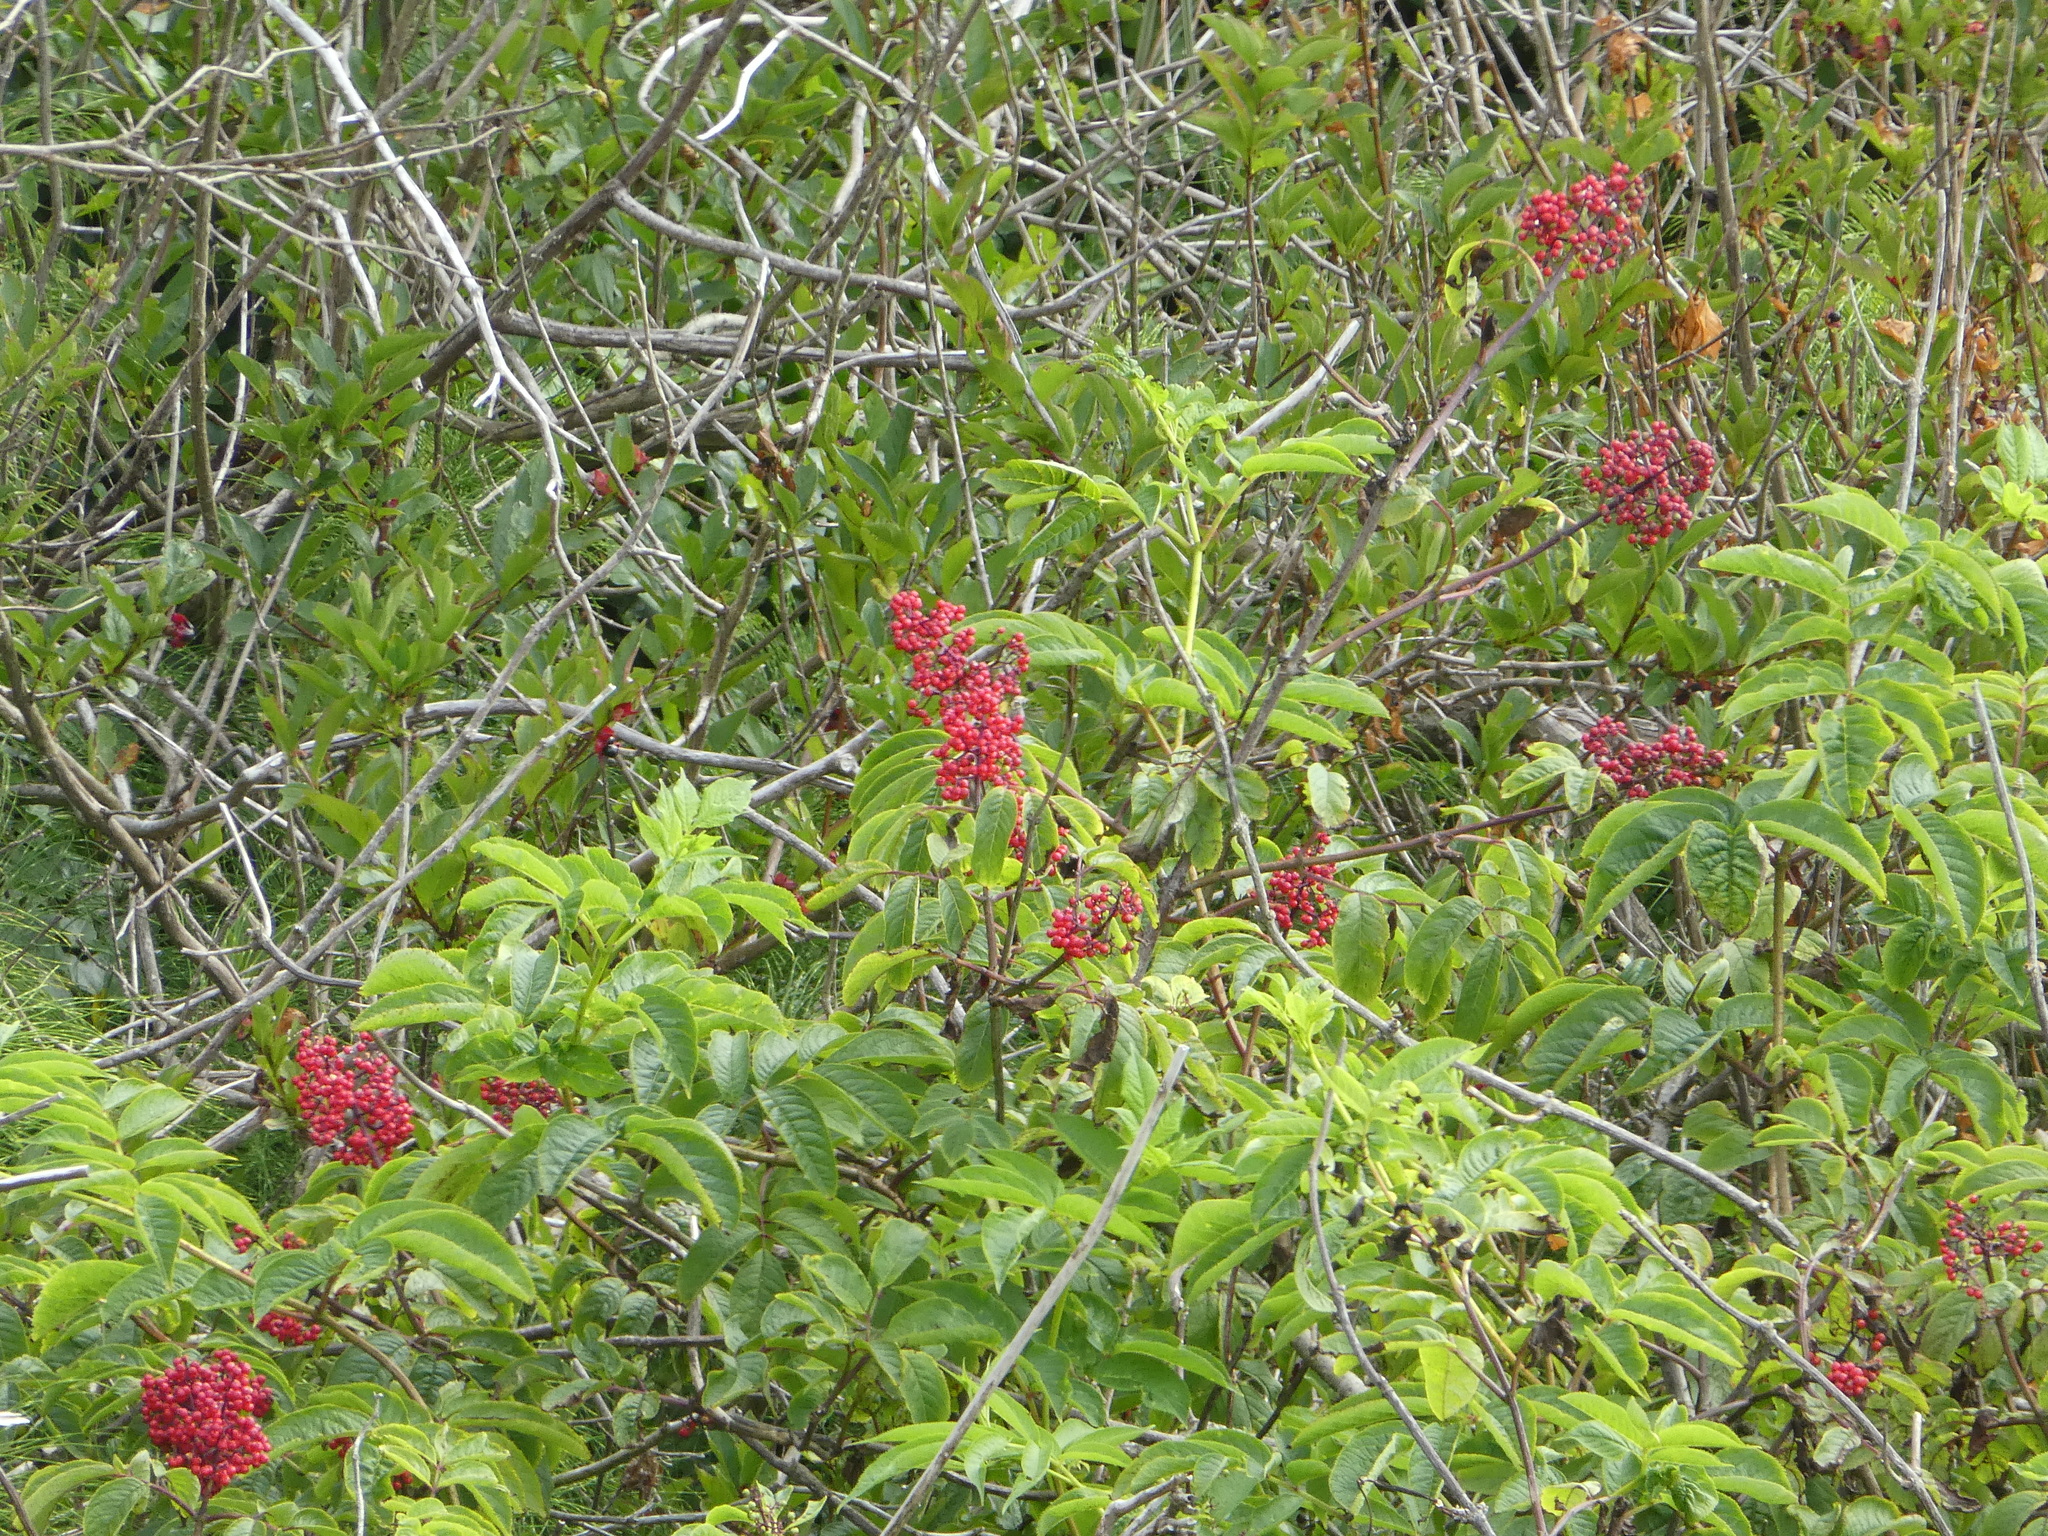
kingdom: Plantae
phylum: Tracheophyta
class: Magnoliopsida
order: Dipsacales
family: Viburnaceae
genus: Sambucus
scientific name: Sambucus racemosa
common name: Red-berried elder
